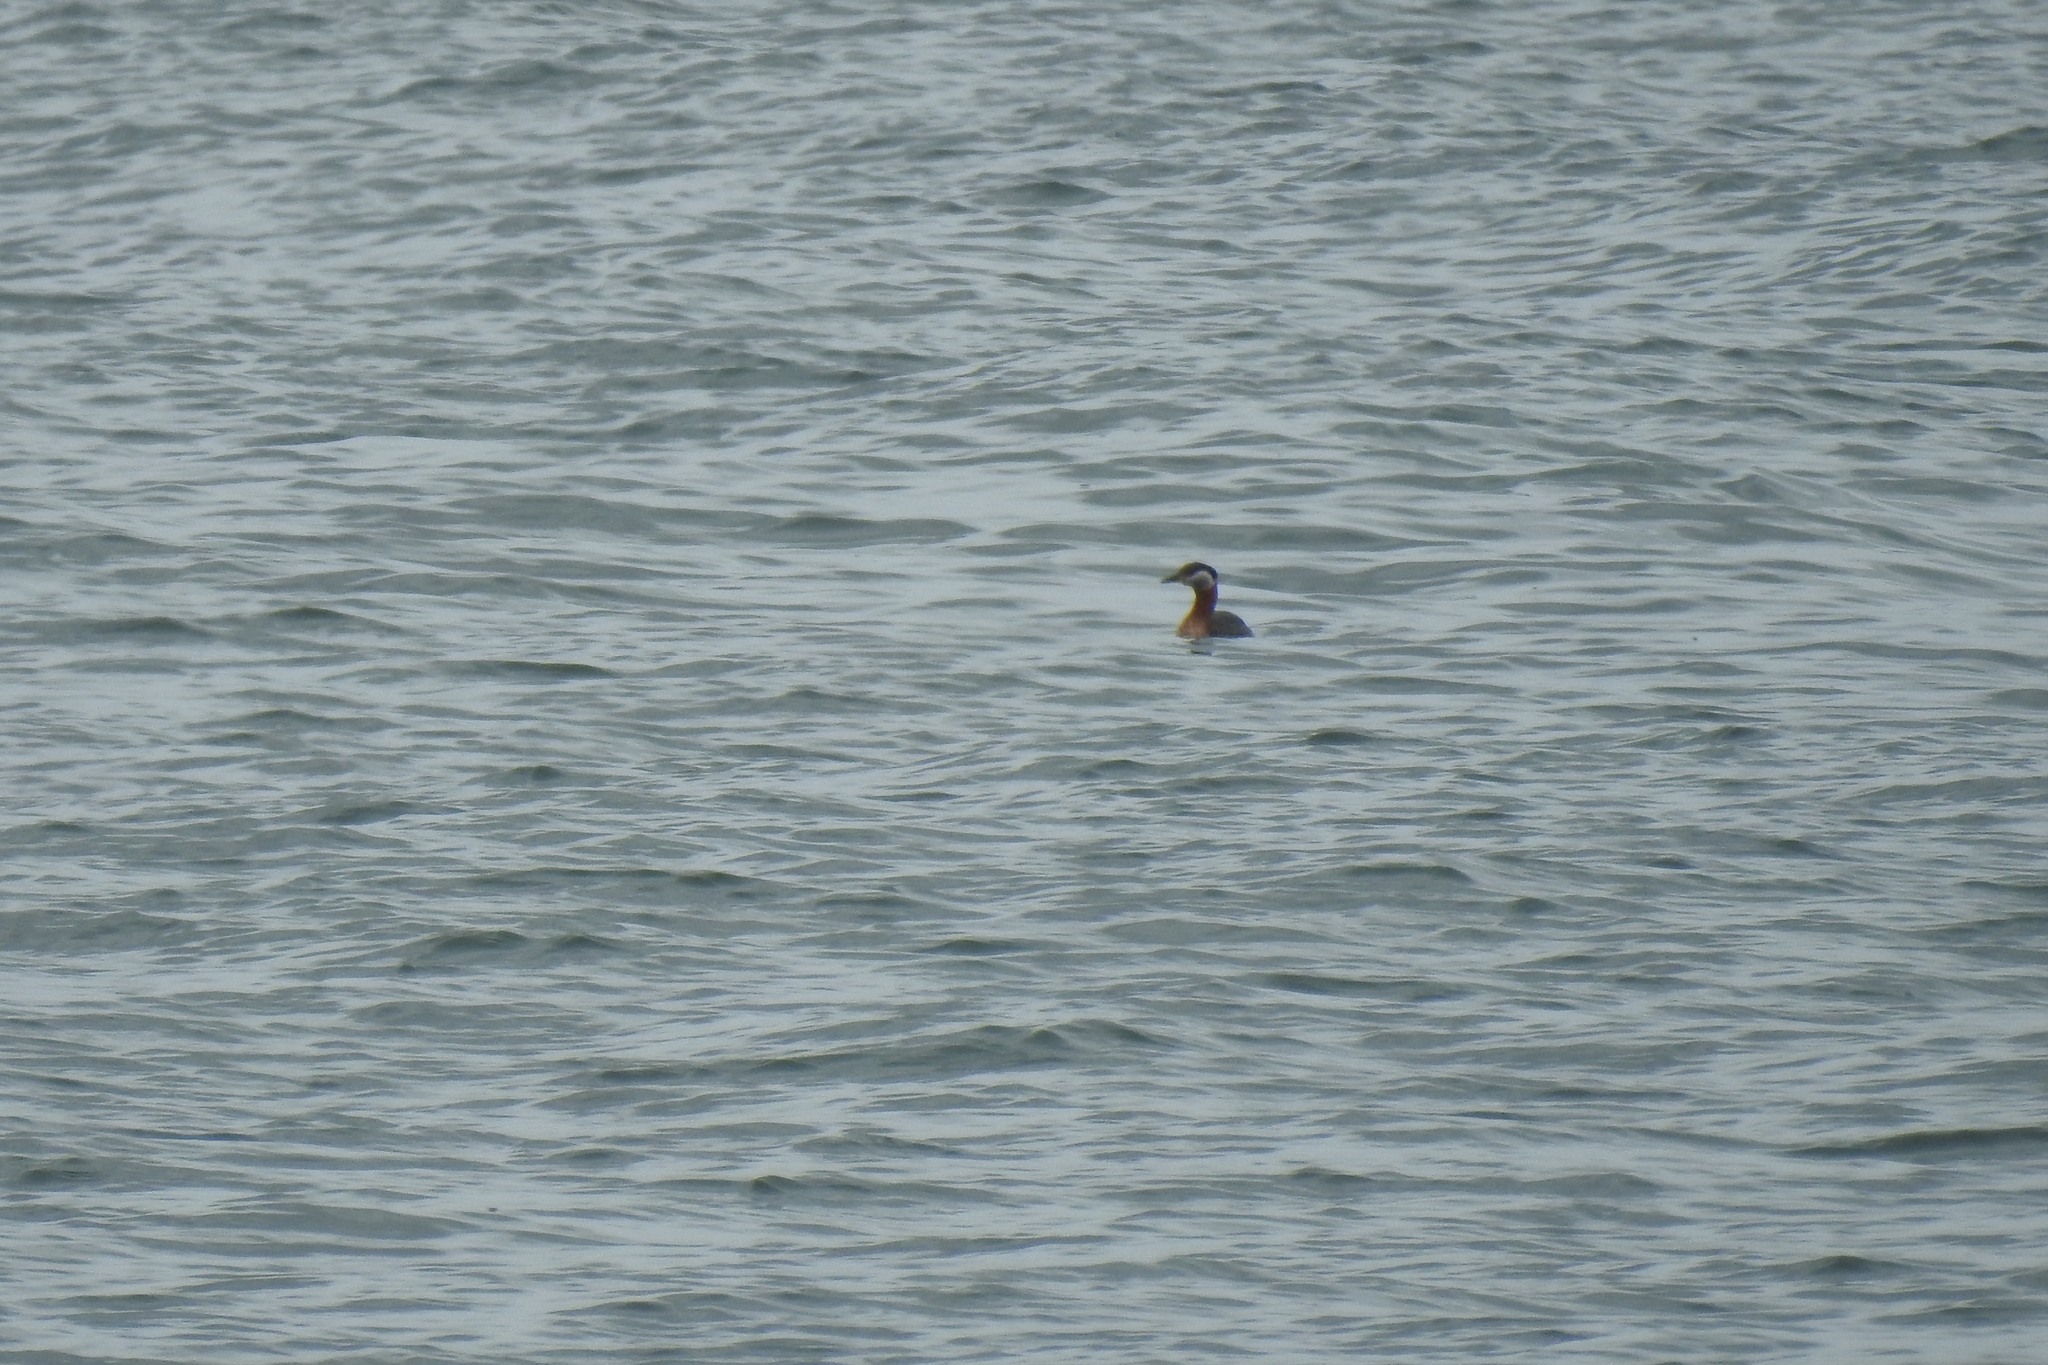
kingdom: Animalia
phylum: Chordata
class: Aves
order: Podicipediformes
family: Podicipedidae
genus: Podiceps
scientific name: Podiceps grisegena
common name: Red-necked grebe
